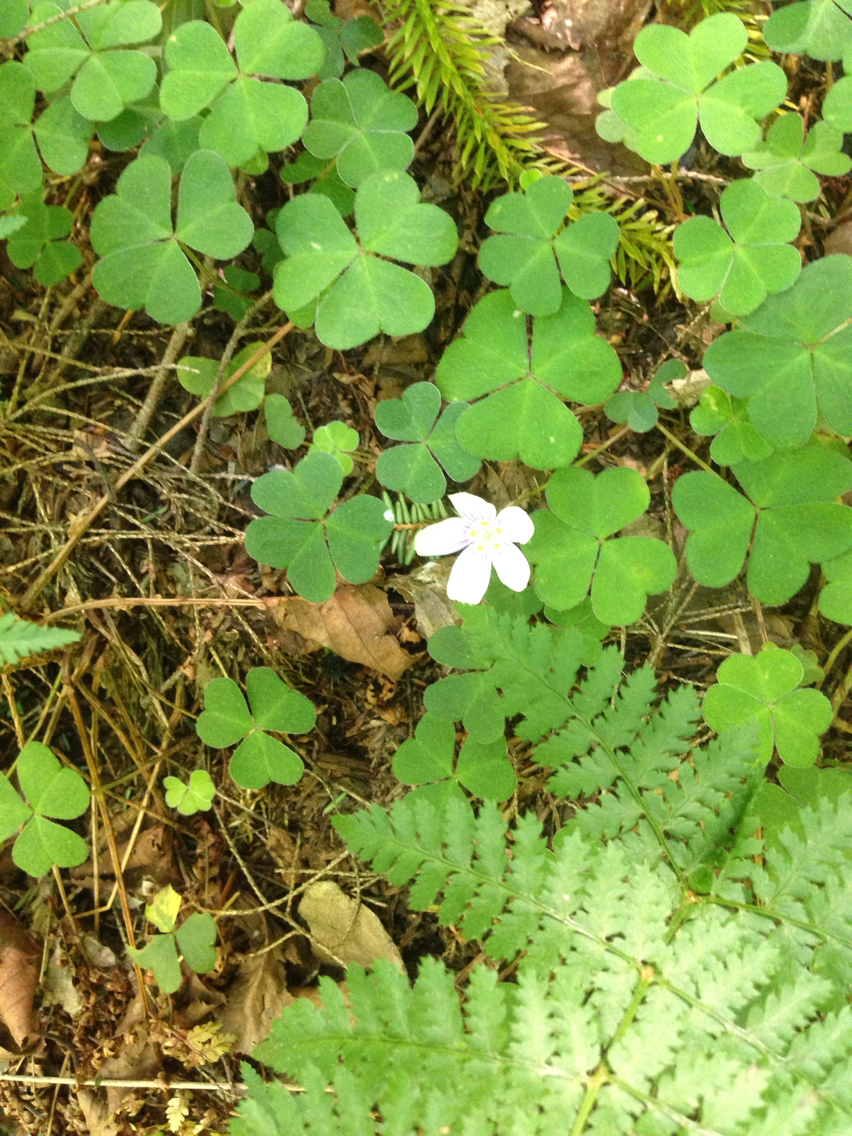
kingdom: Plantae
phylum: Tracheophyta
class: Magnoliopsida
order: Oxalidales
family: Oxalidaceae
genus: Oxalis
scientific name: Oxalis montana
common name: American wood-sorrel
